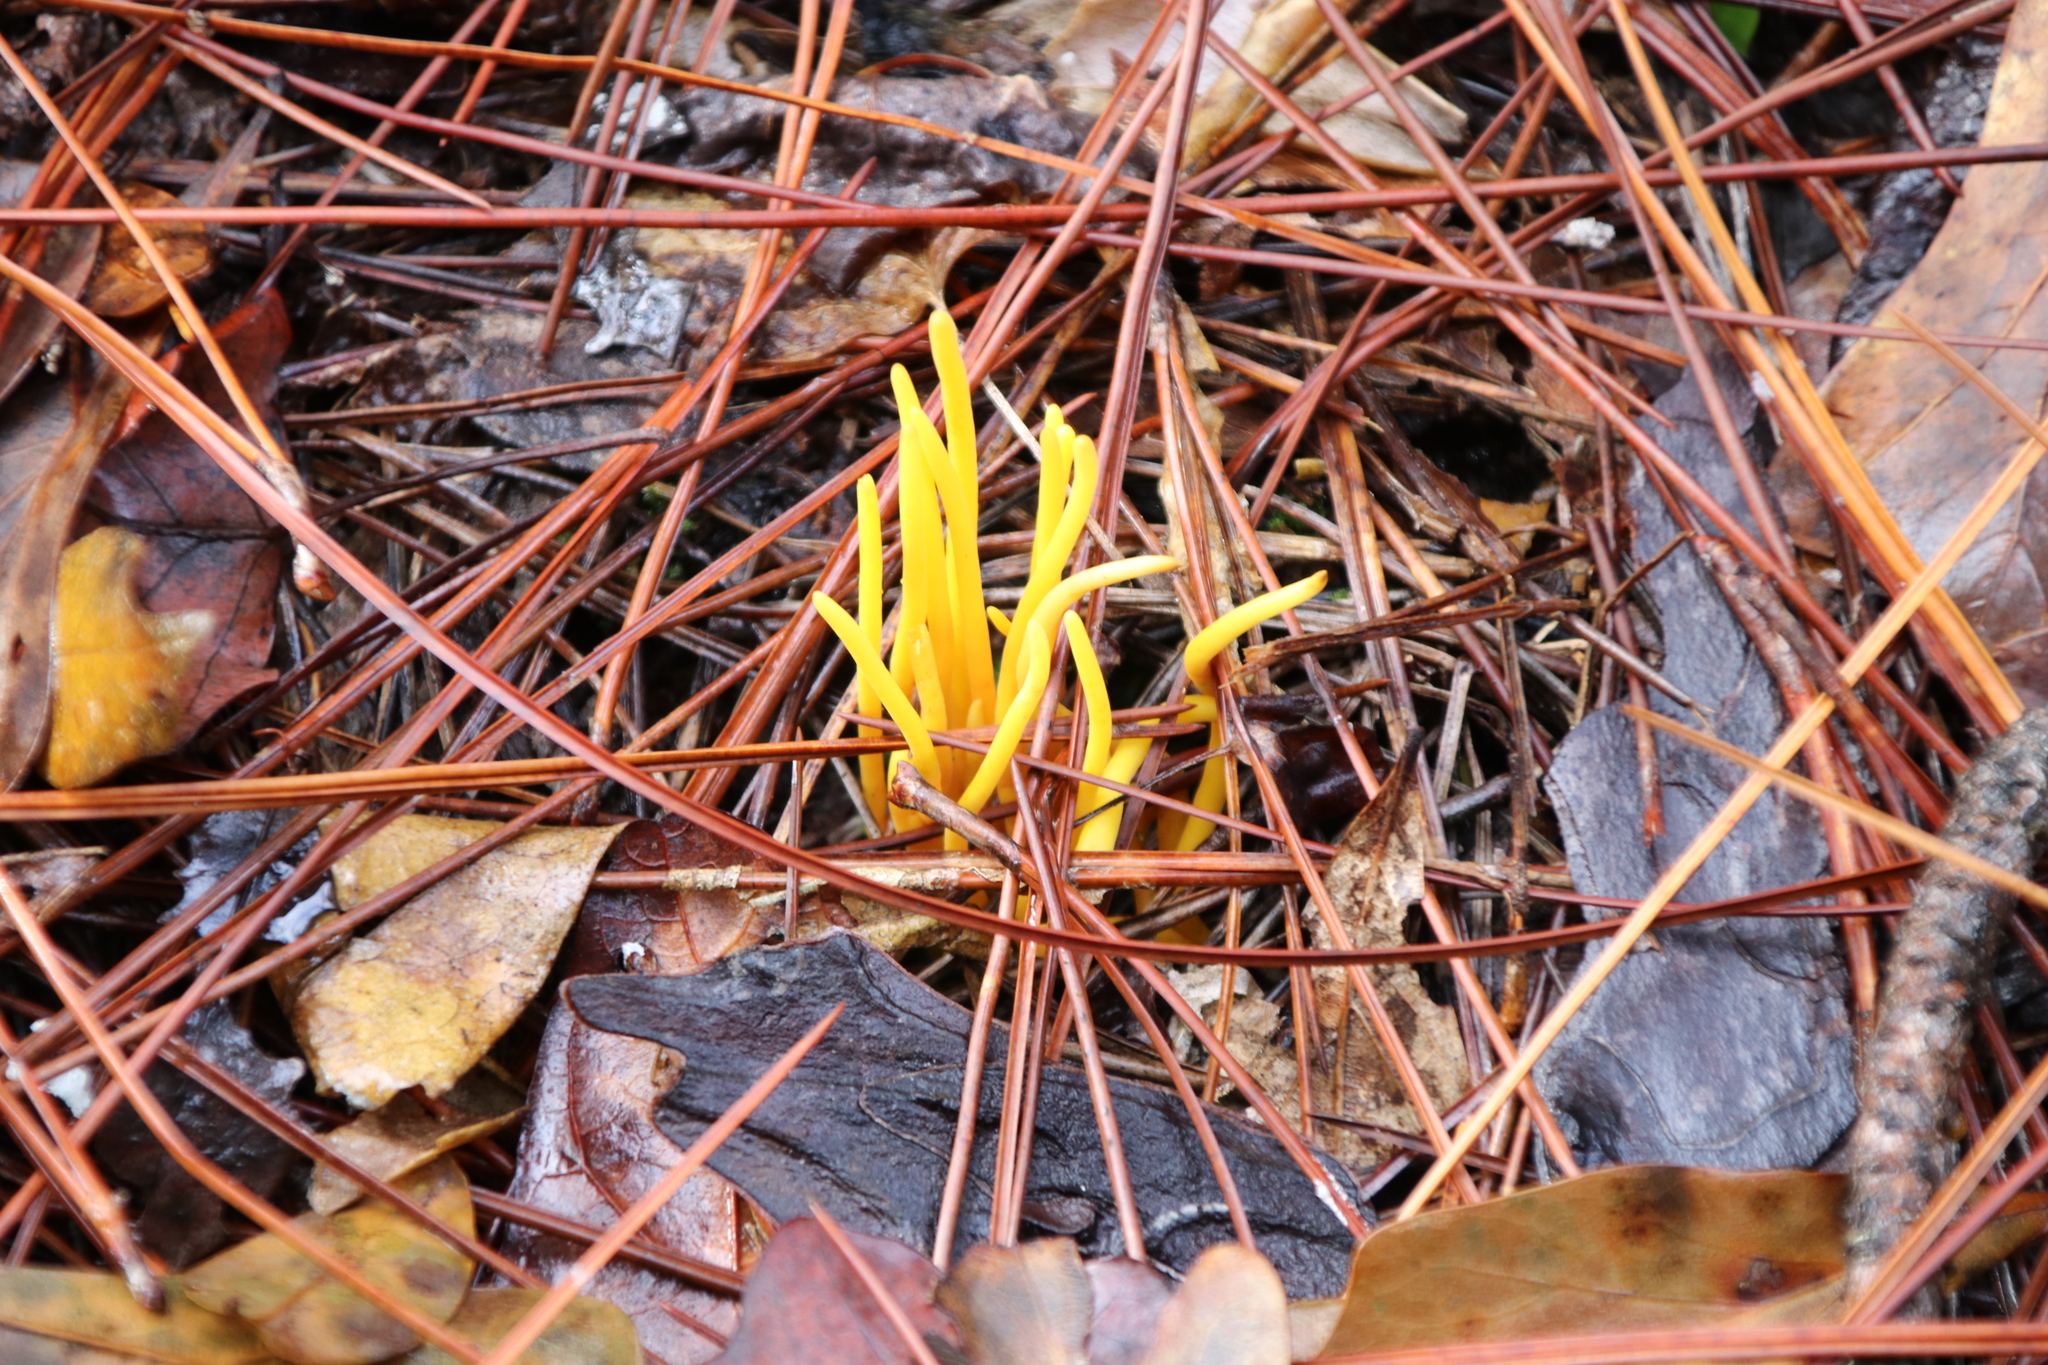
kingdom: Fungi
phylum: Basidiomycota
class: Agaricomycetes
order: Agaricales
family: Clavariaceae
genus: Clavulinopsis
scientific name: Clavulinopsis fusiformis
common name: Golden spindles
